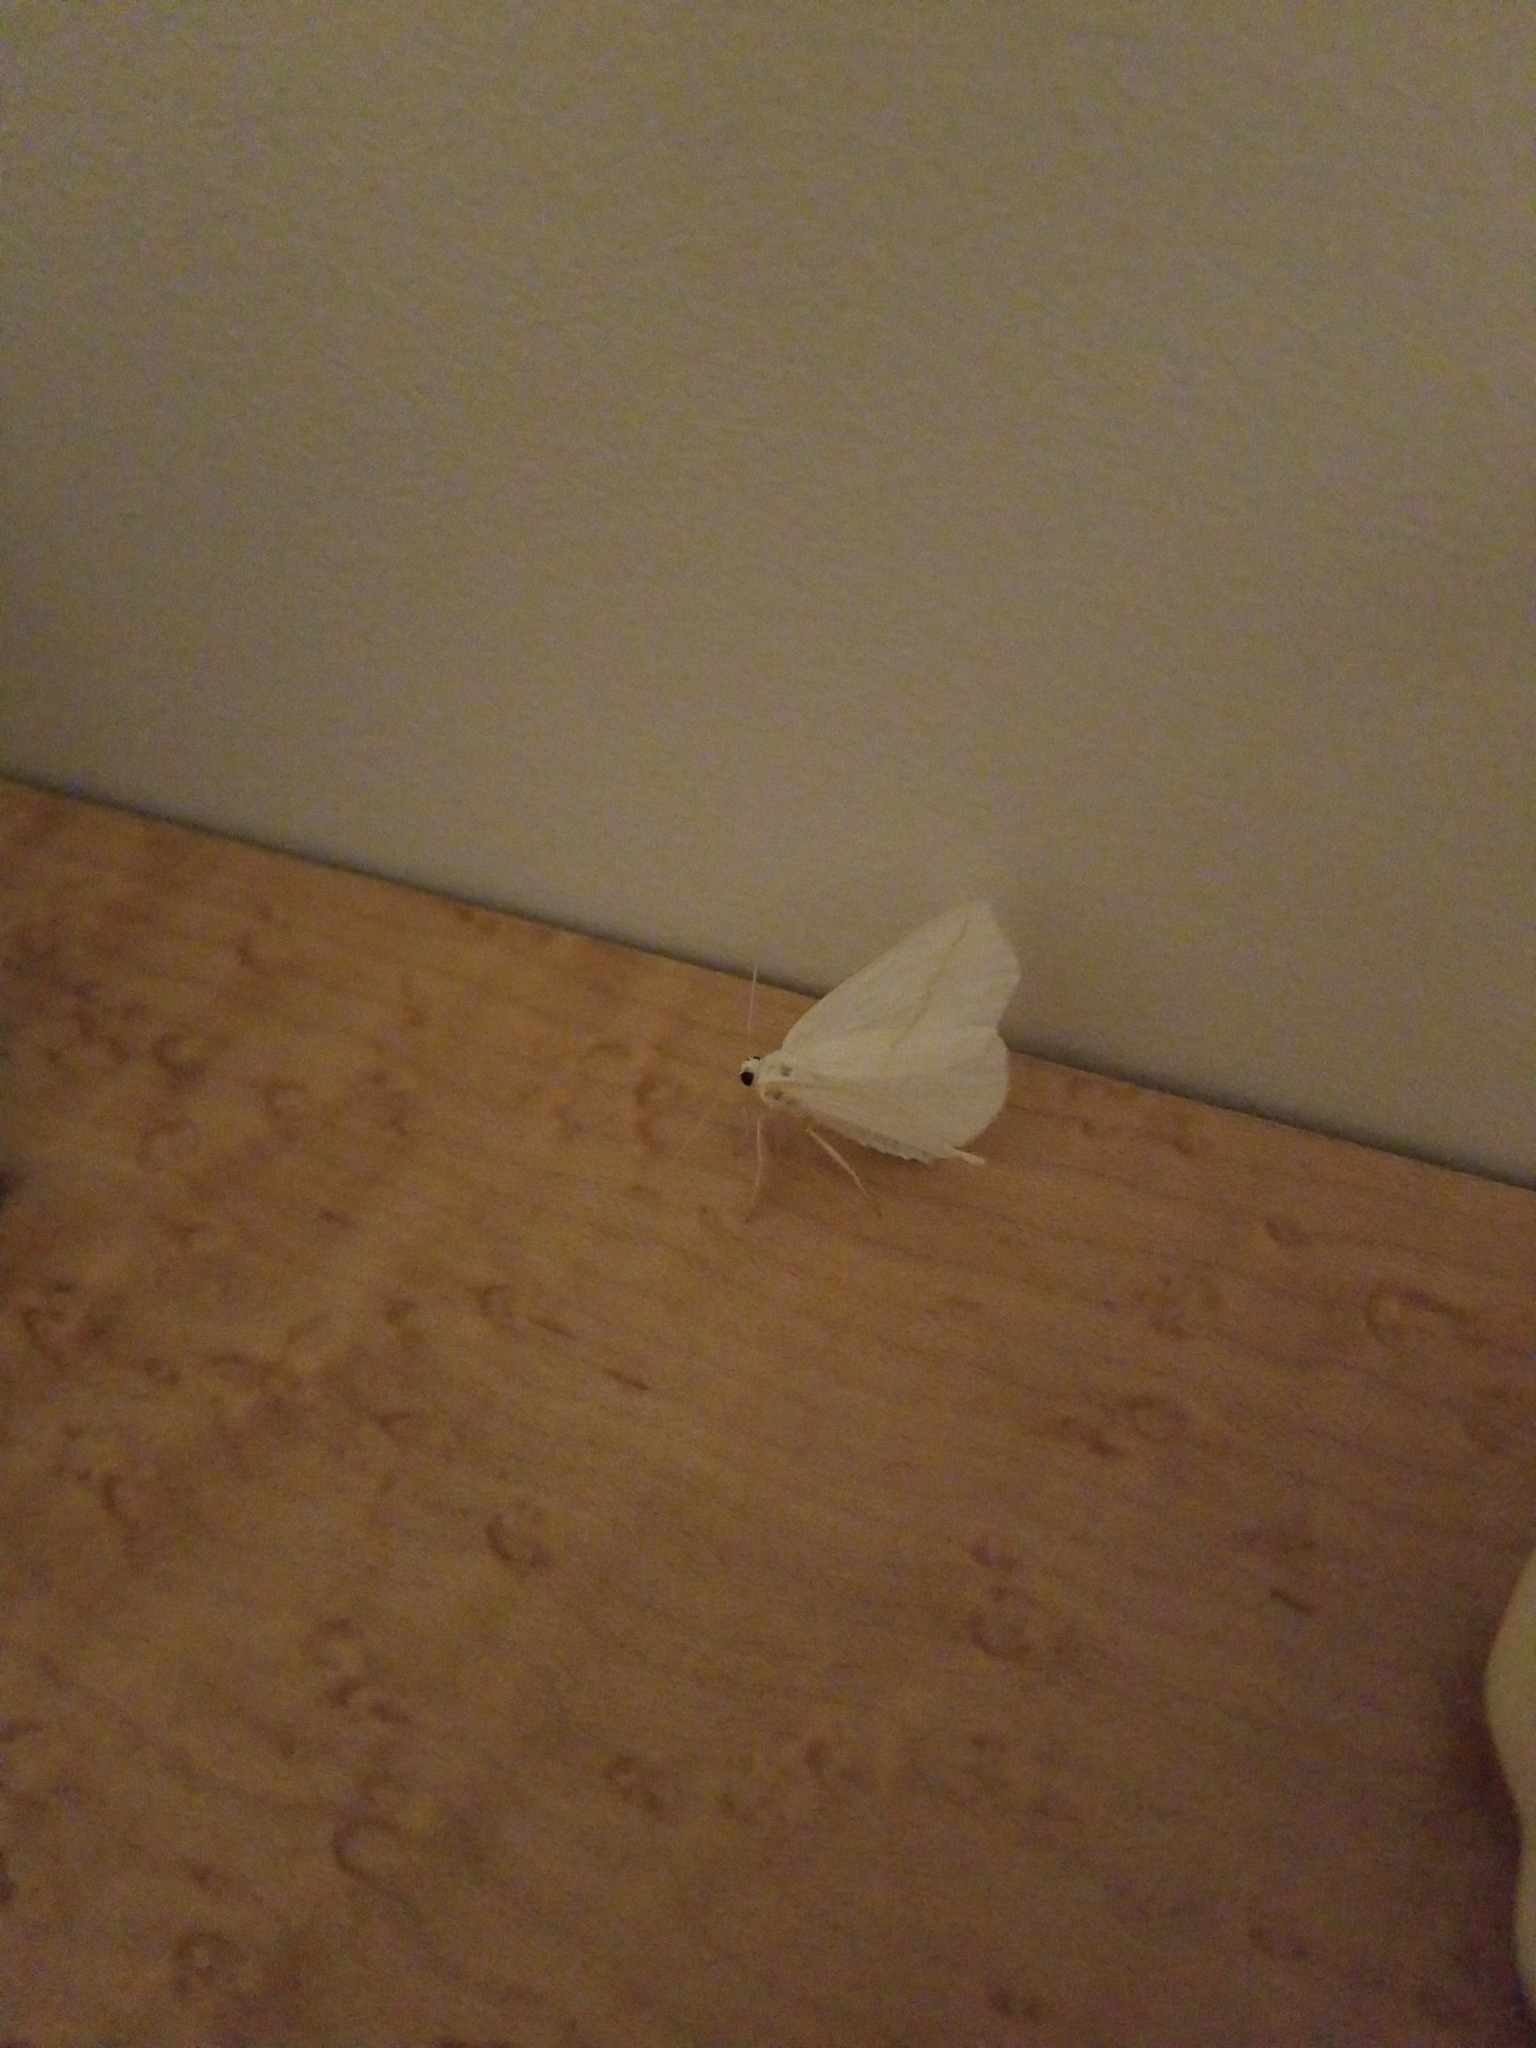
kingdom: Animalia
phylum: Arthropoda
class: Insecta
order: Lepidoptera
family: Geometridae
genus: Tetracis
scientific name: Tetracis cachexiata
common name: White slant-line
